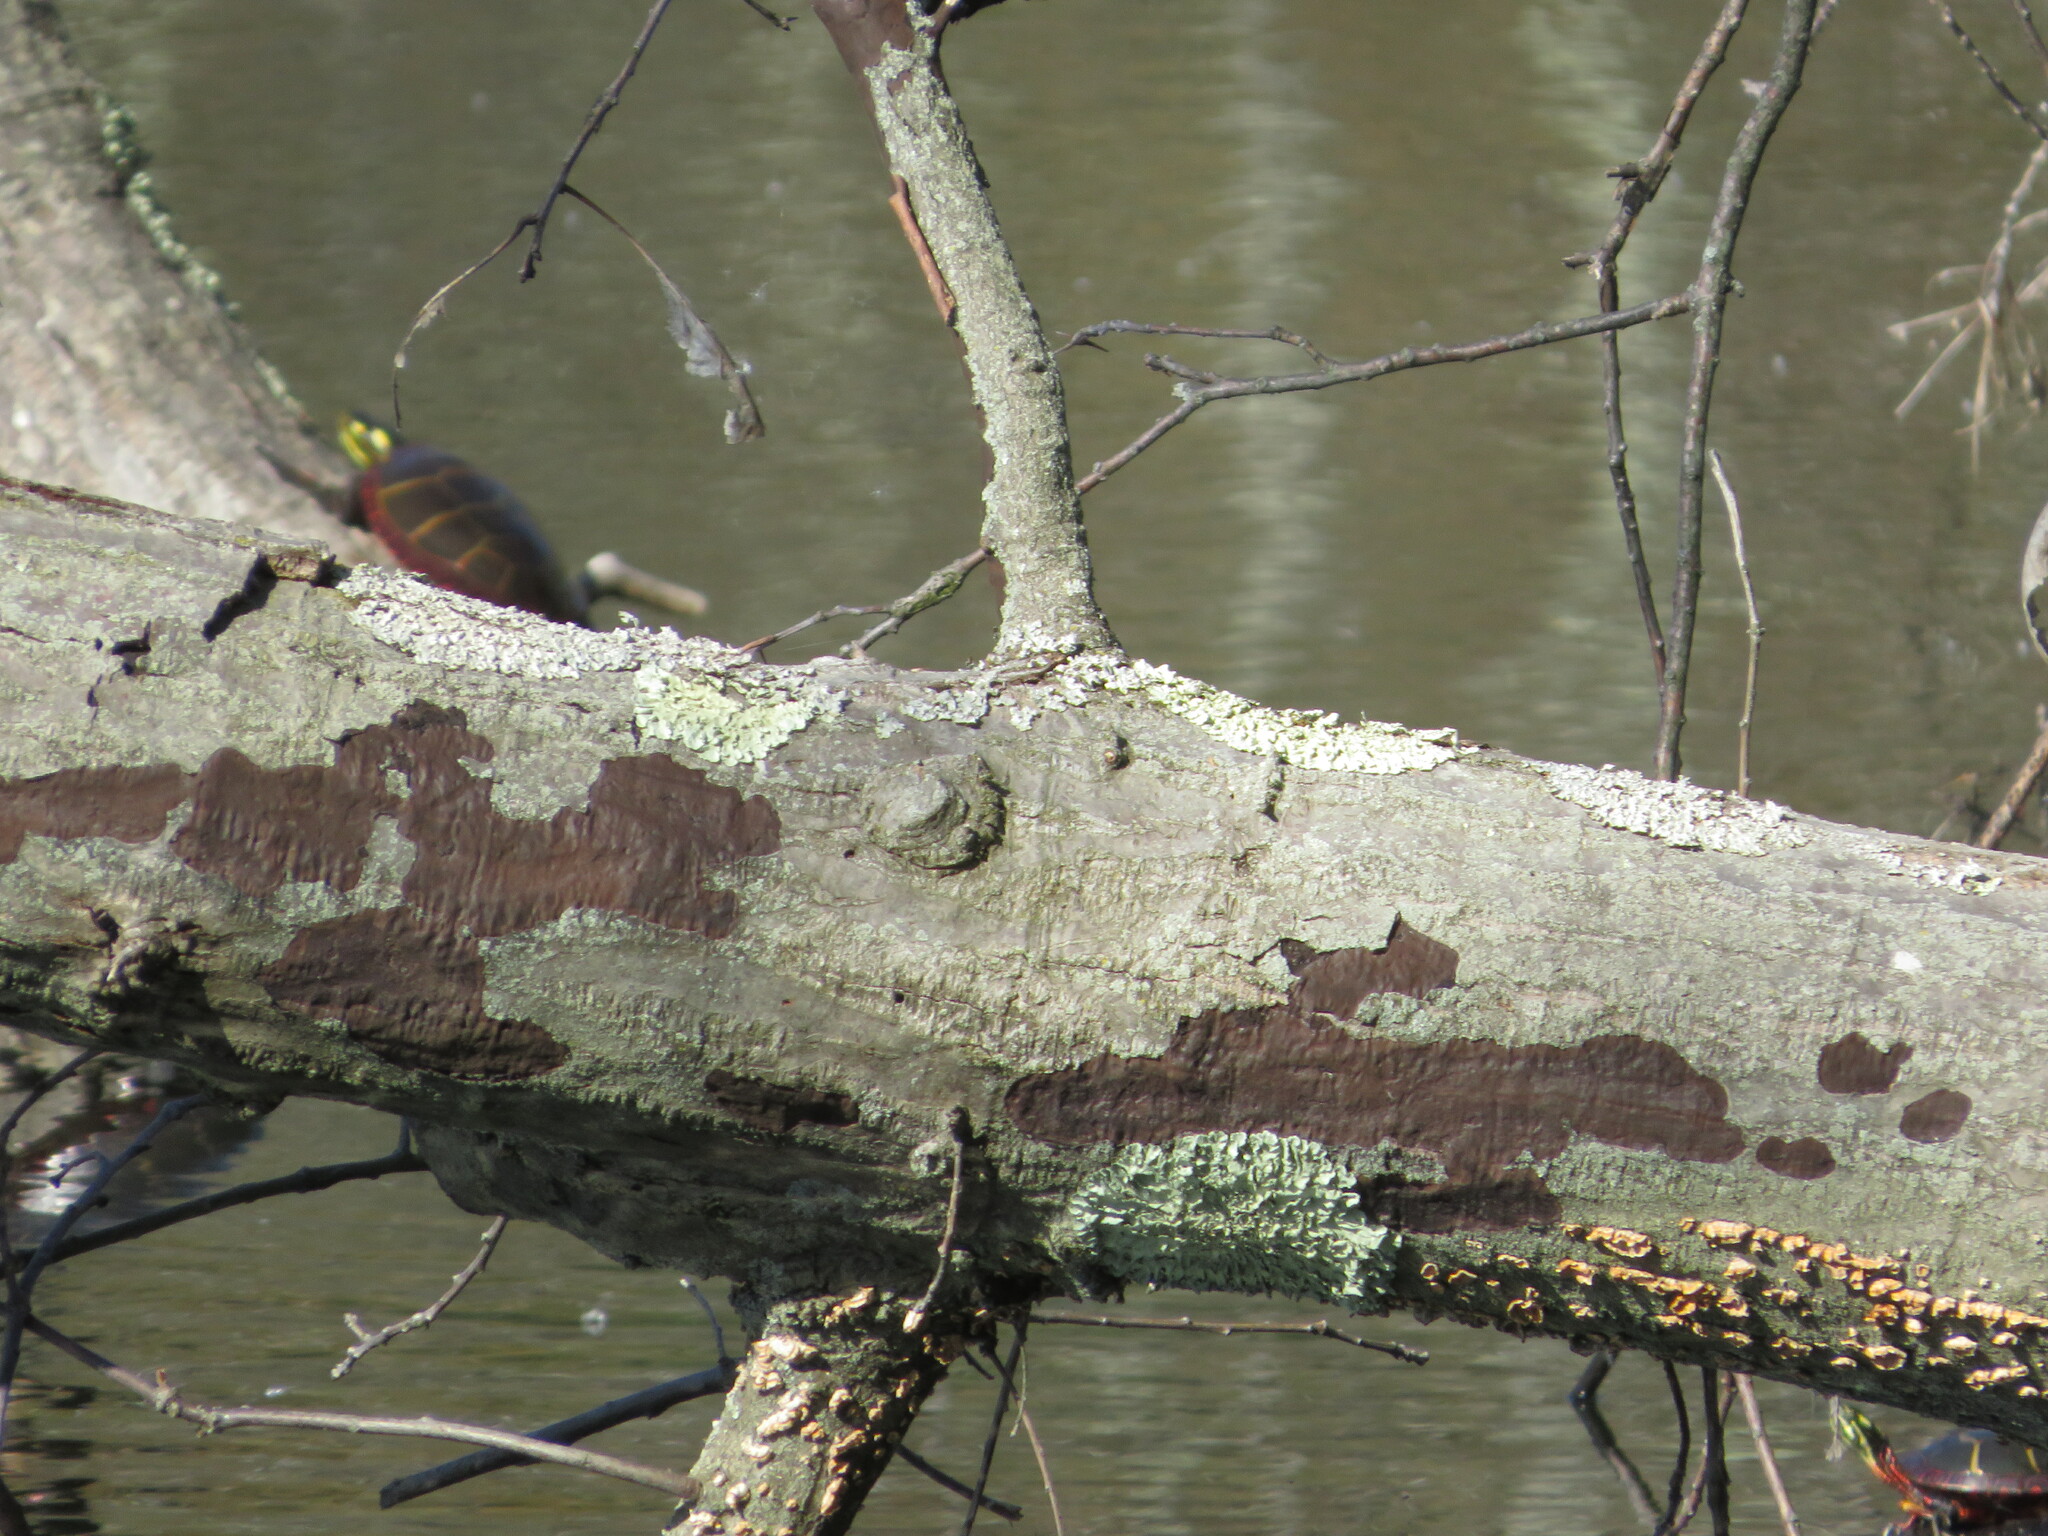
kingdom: Animalia
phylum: Chordata
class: Testudines
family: Emydidae
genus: Chrysemys
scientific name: Chrysemys picta
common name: Painted turtle
